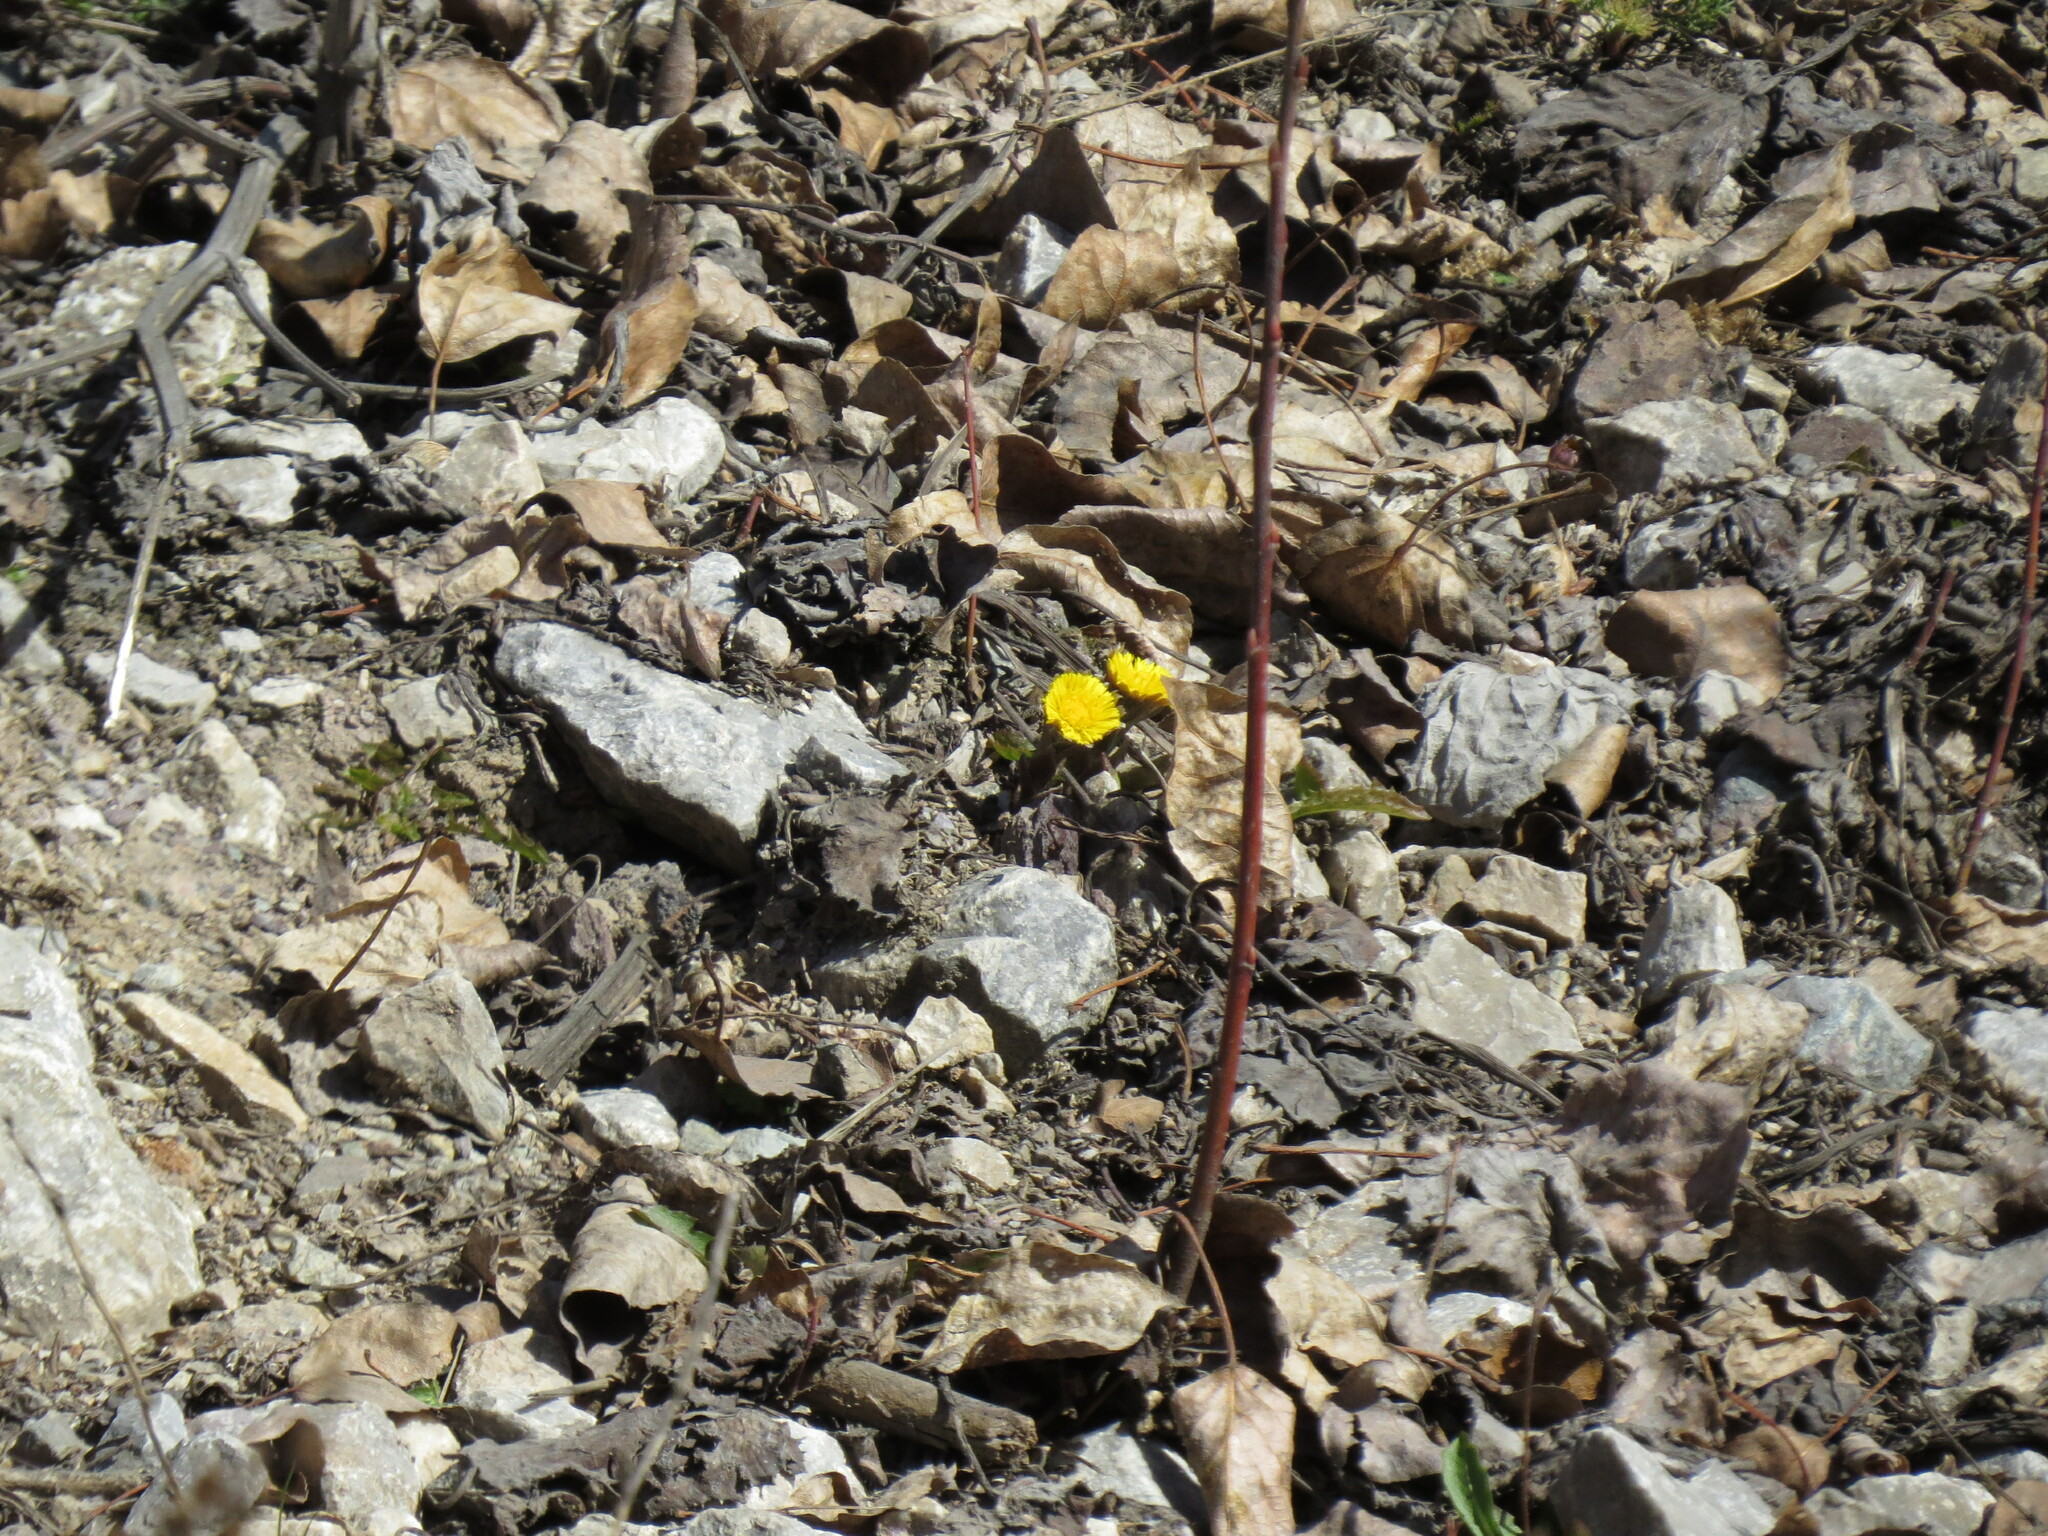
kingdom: Plantae
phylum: Tracheophyta
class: Magnoliopsida
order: Asterales
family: Asteraceae
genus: Tussilago
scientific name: Tussilago farfara
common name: Coltsfoot
